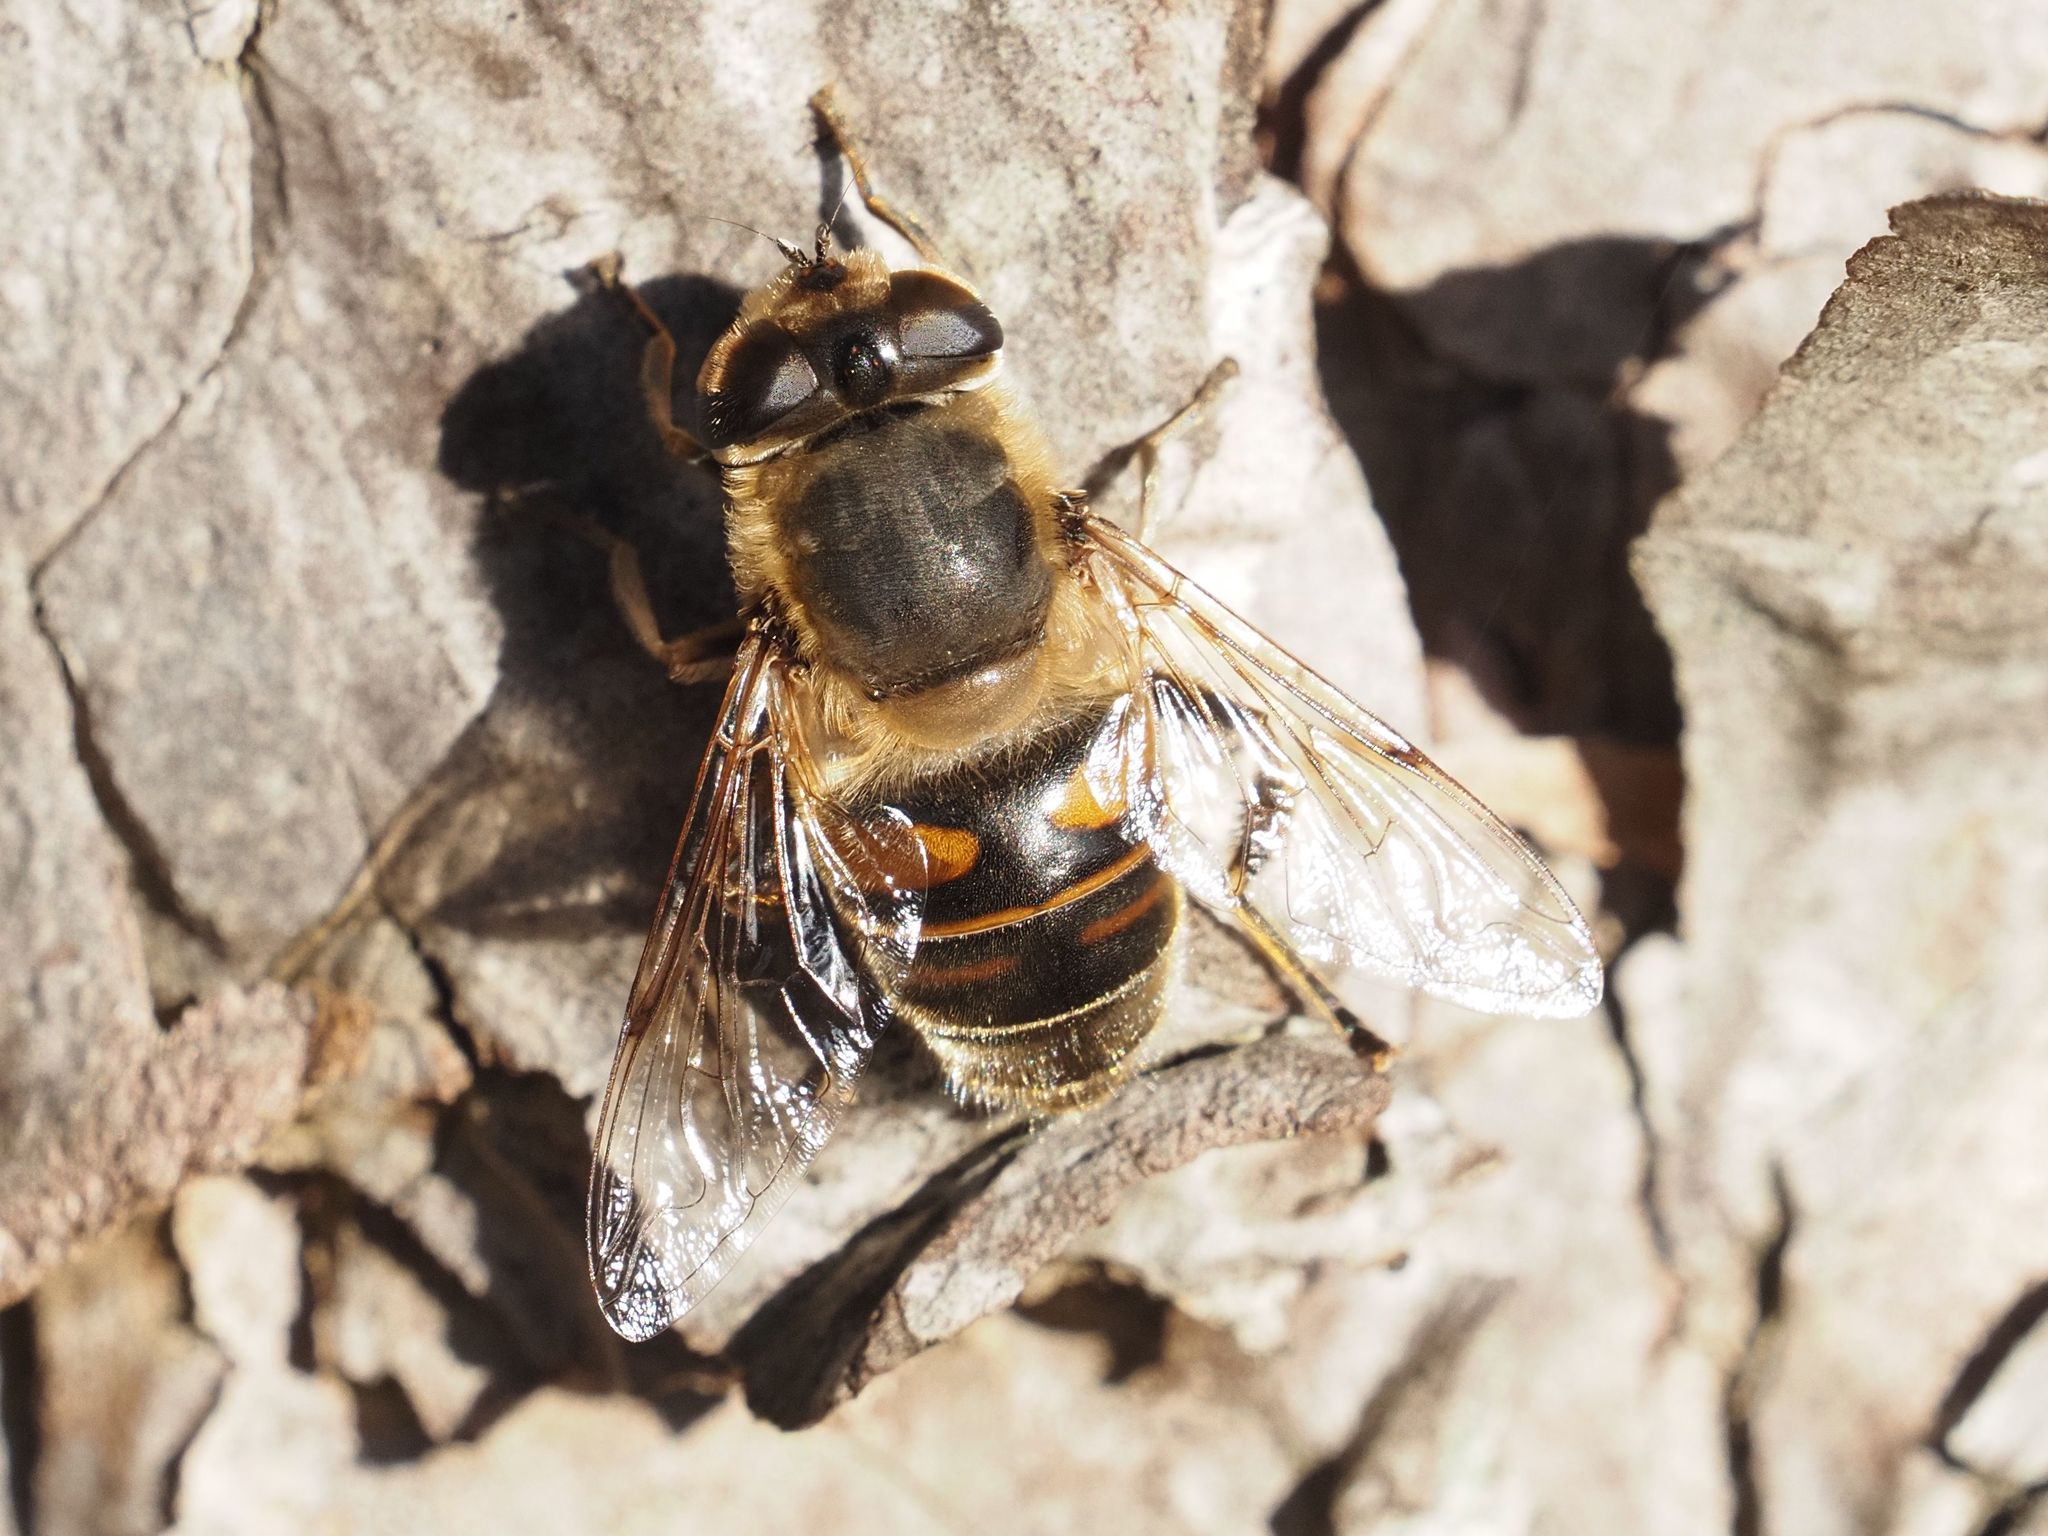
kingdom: Animalia
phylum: Arthropoda
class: Insecta
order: Diptera
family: Syrphidae
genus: Eristalis
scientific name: Eristalis tenax
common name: Drone fly
